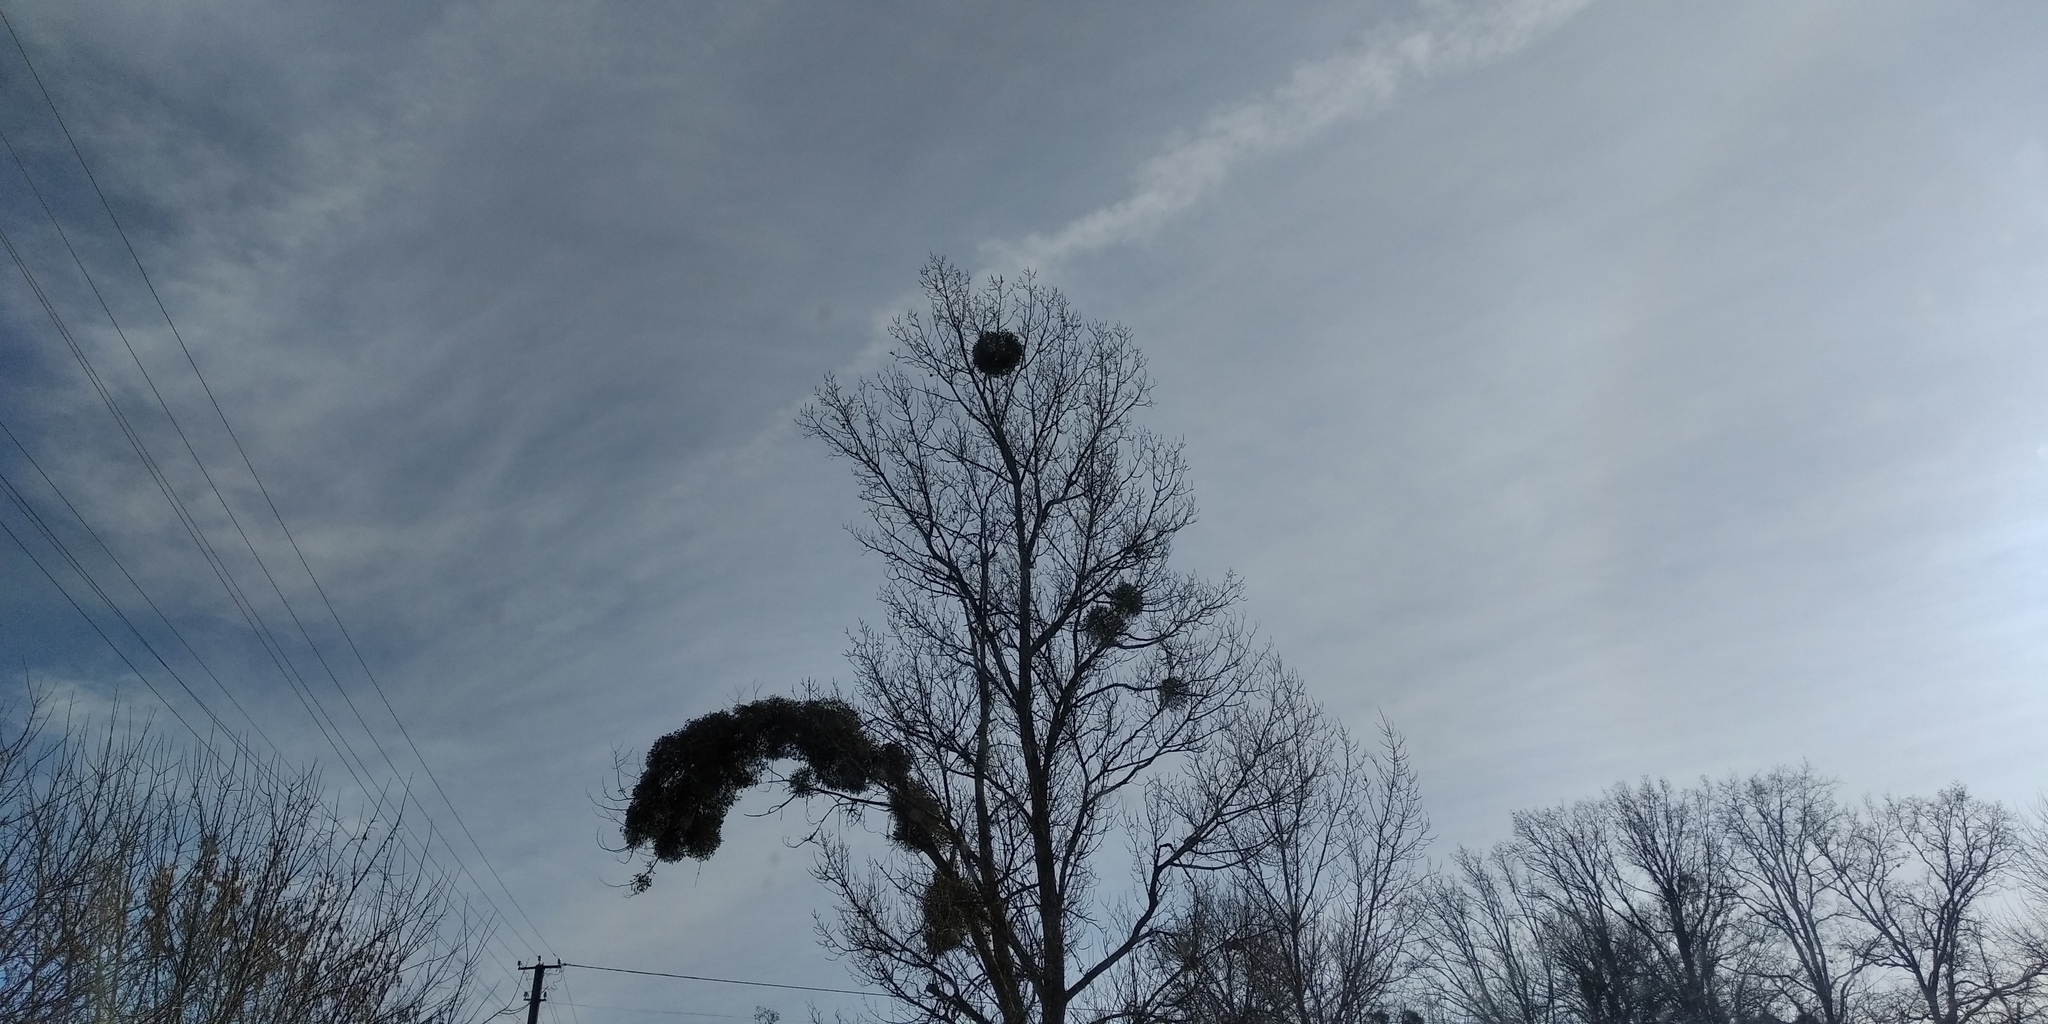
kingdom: Plantae
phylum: Tracheophyta
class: Magnoliopsida
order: Santalales
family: Viscaceae
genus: Viscum
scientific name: Viscum album
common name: Mistletoe
